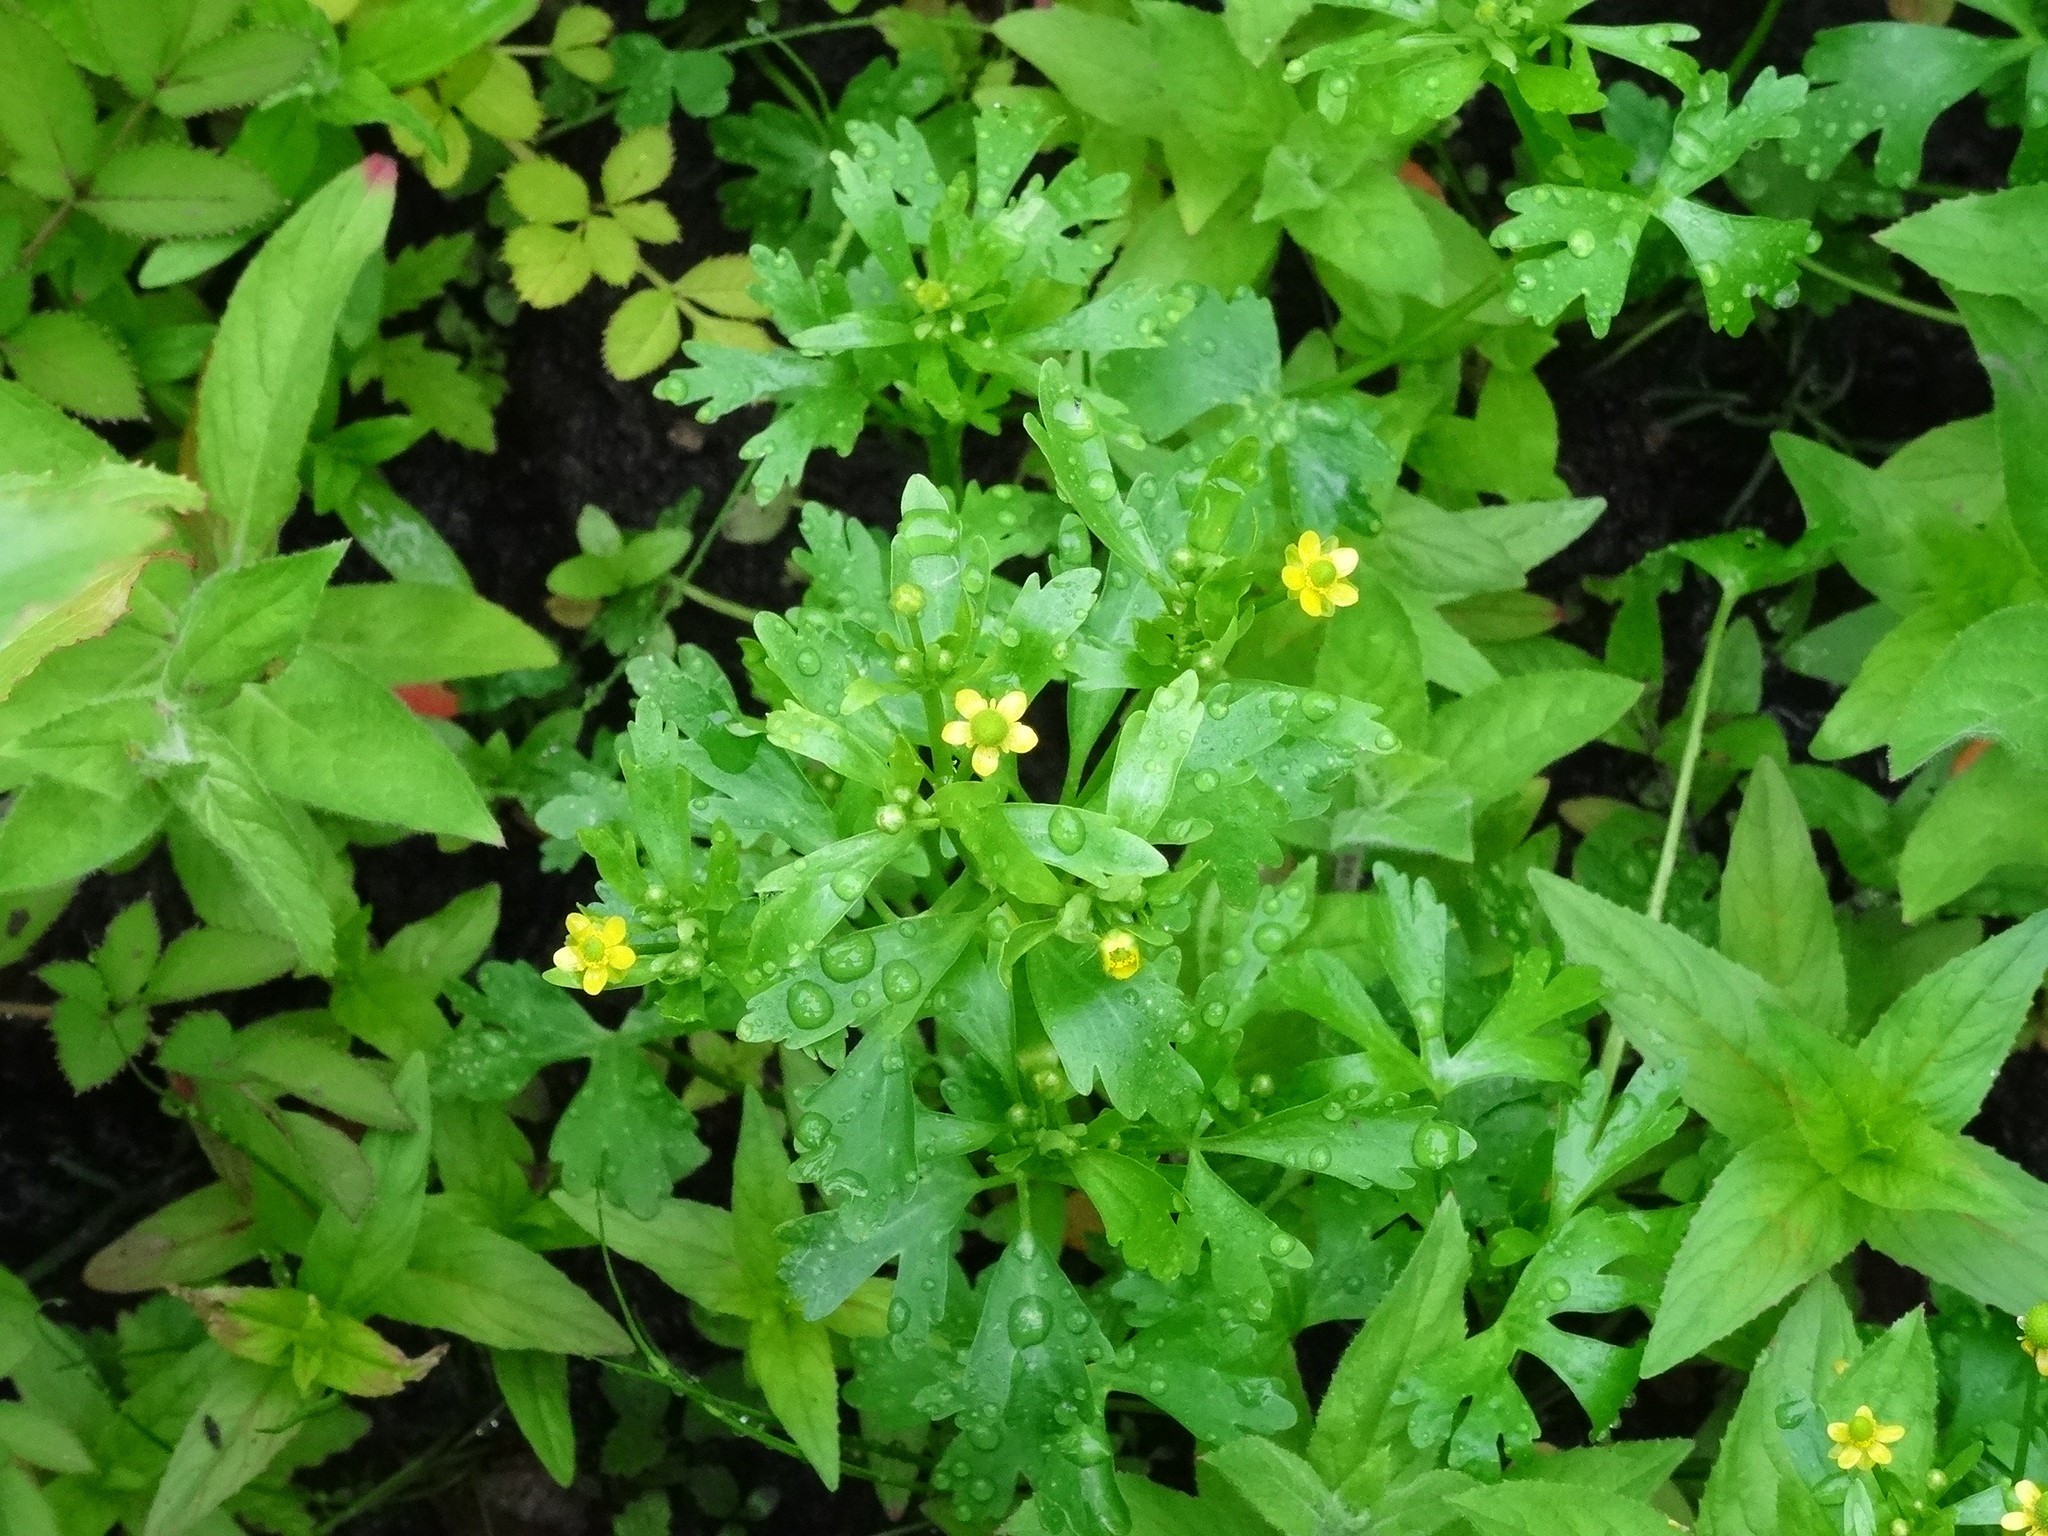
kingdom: Plantae
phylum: Tracheophyta
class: Magnoliopsida
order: Ranunculales
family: Ranunculaceae
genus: Ranunculus
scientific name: Ranunculus sceleratus
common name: Celery-leaved buttercup
